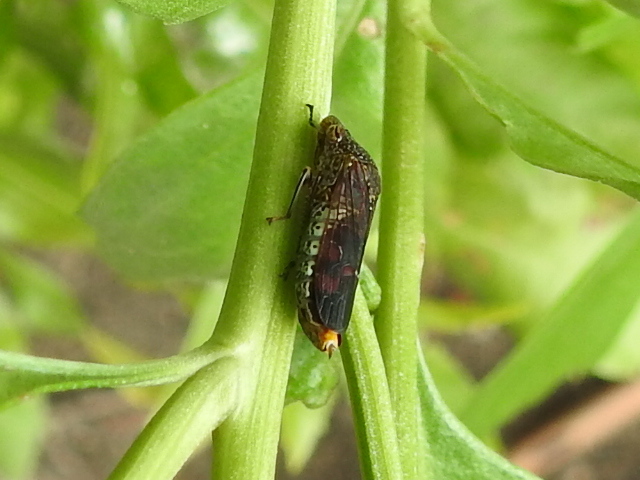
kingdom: Animalia
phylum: Arthropoda
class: Insecta
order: Hemiptera
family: Cicadellidae
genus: Homalodisca
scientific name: Homalodisca vitripennis
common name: Glassy-winged sharpshooter
